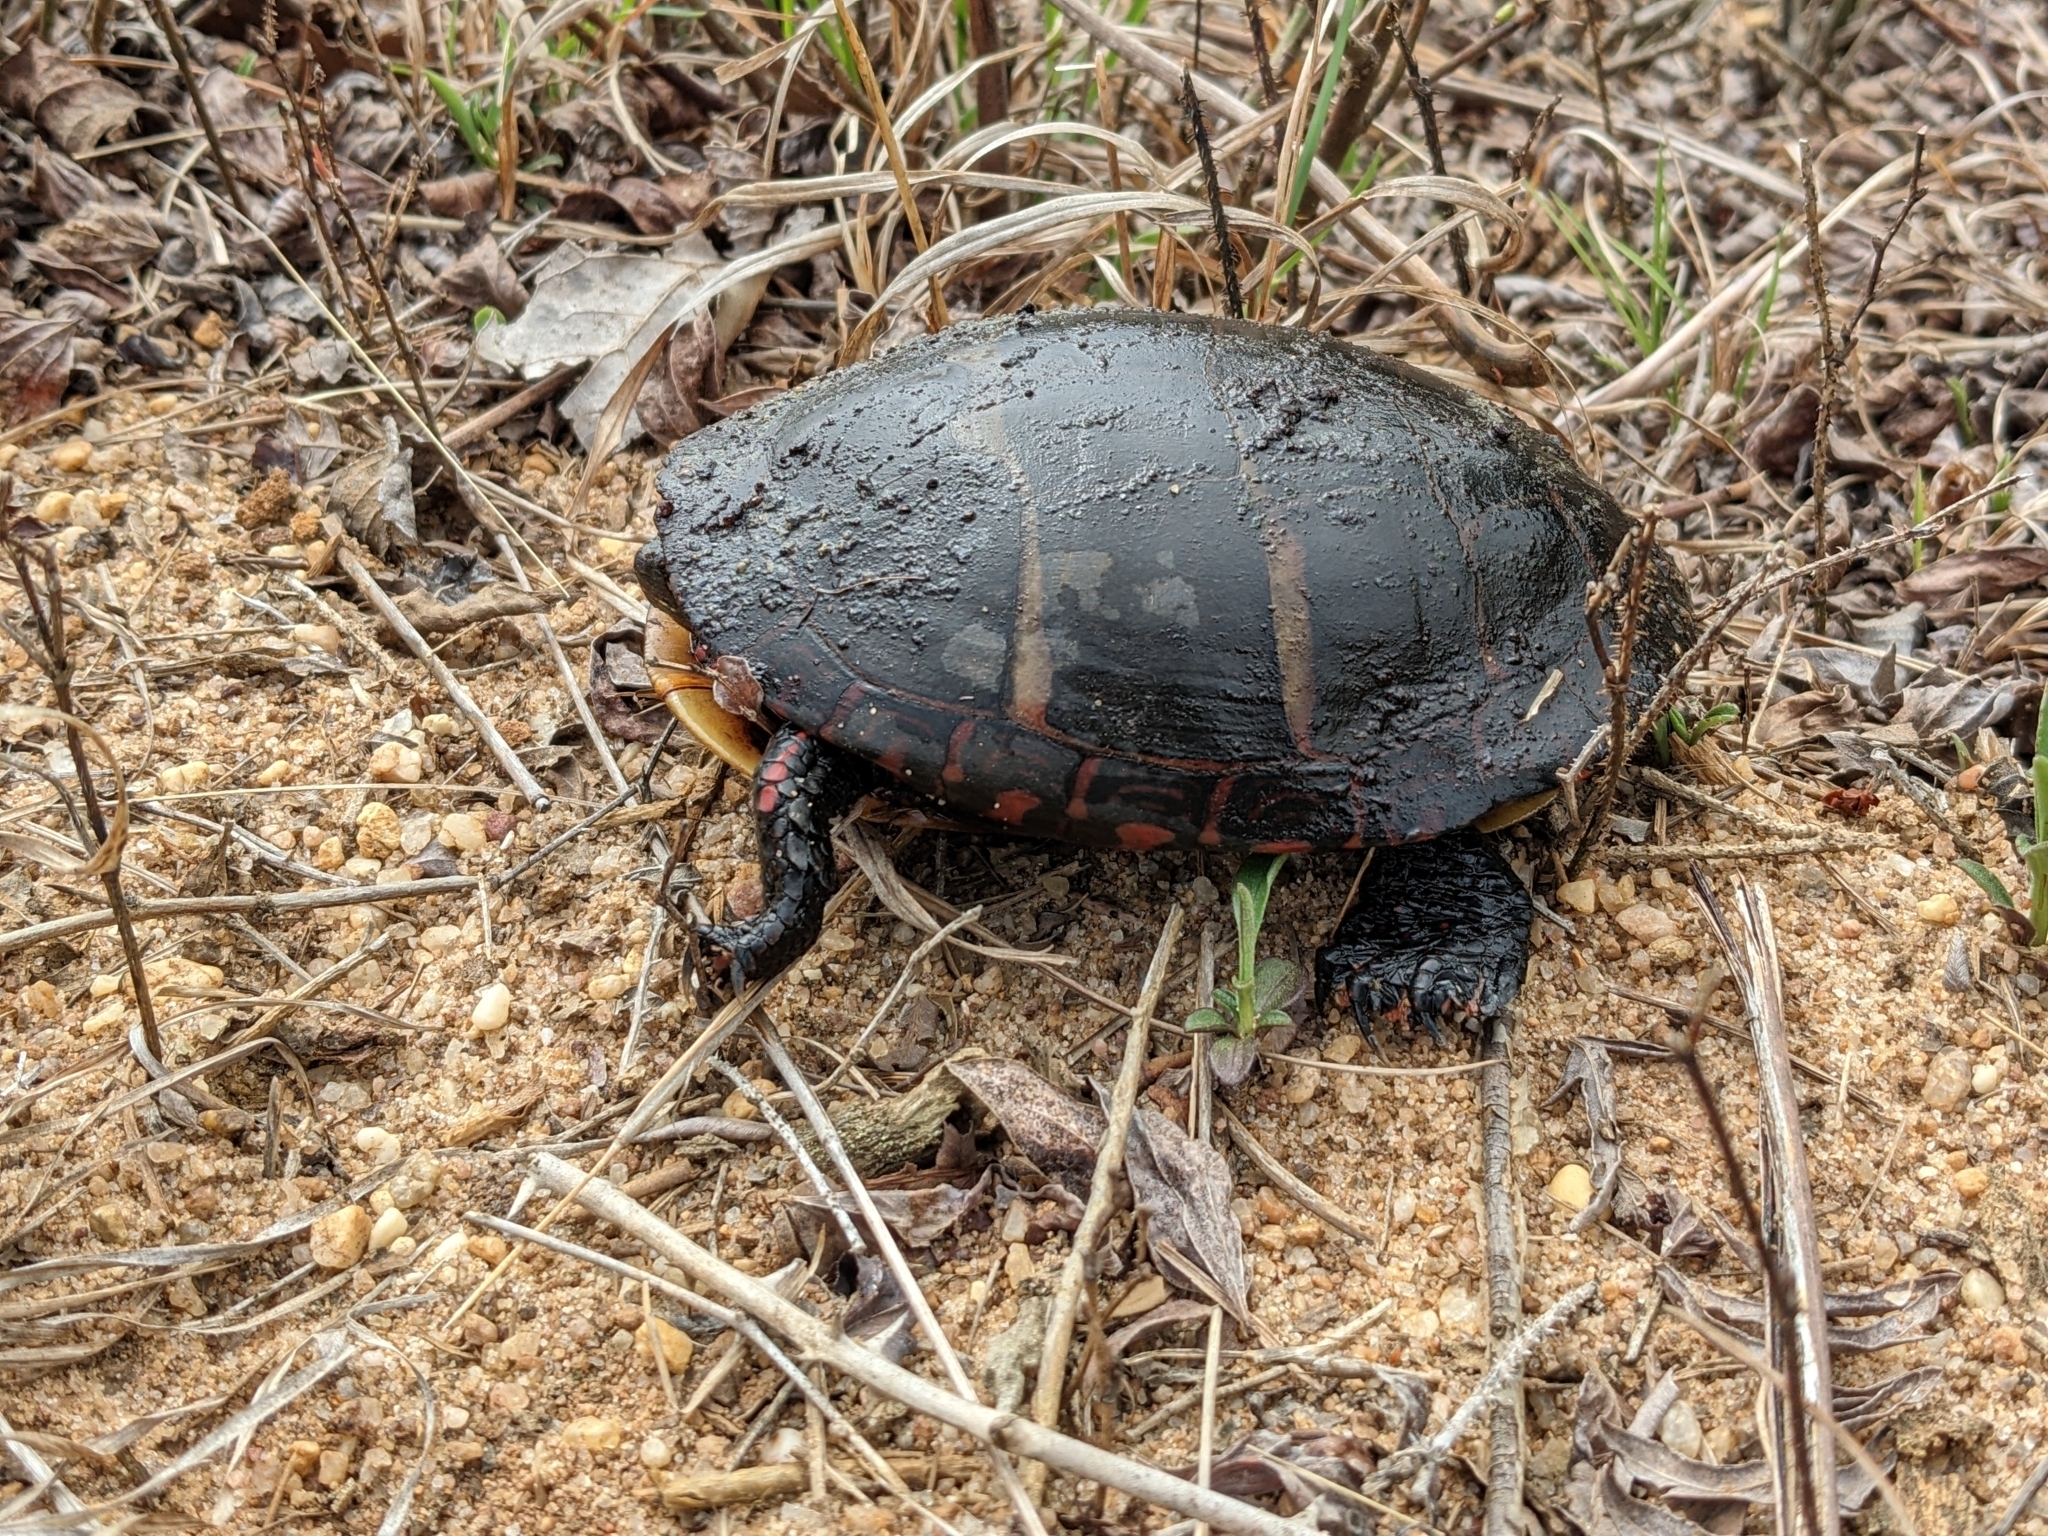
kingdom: Animalia
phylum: Chordata
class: Testudines
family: Emydidae
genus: Chrysemys
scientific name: Chrysemys picta
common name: Painted turtle
